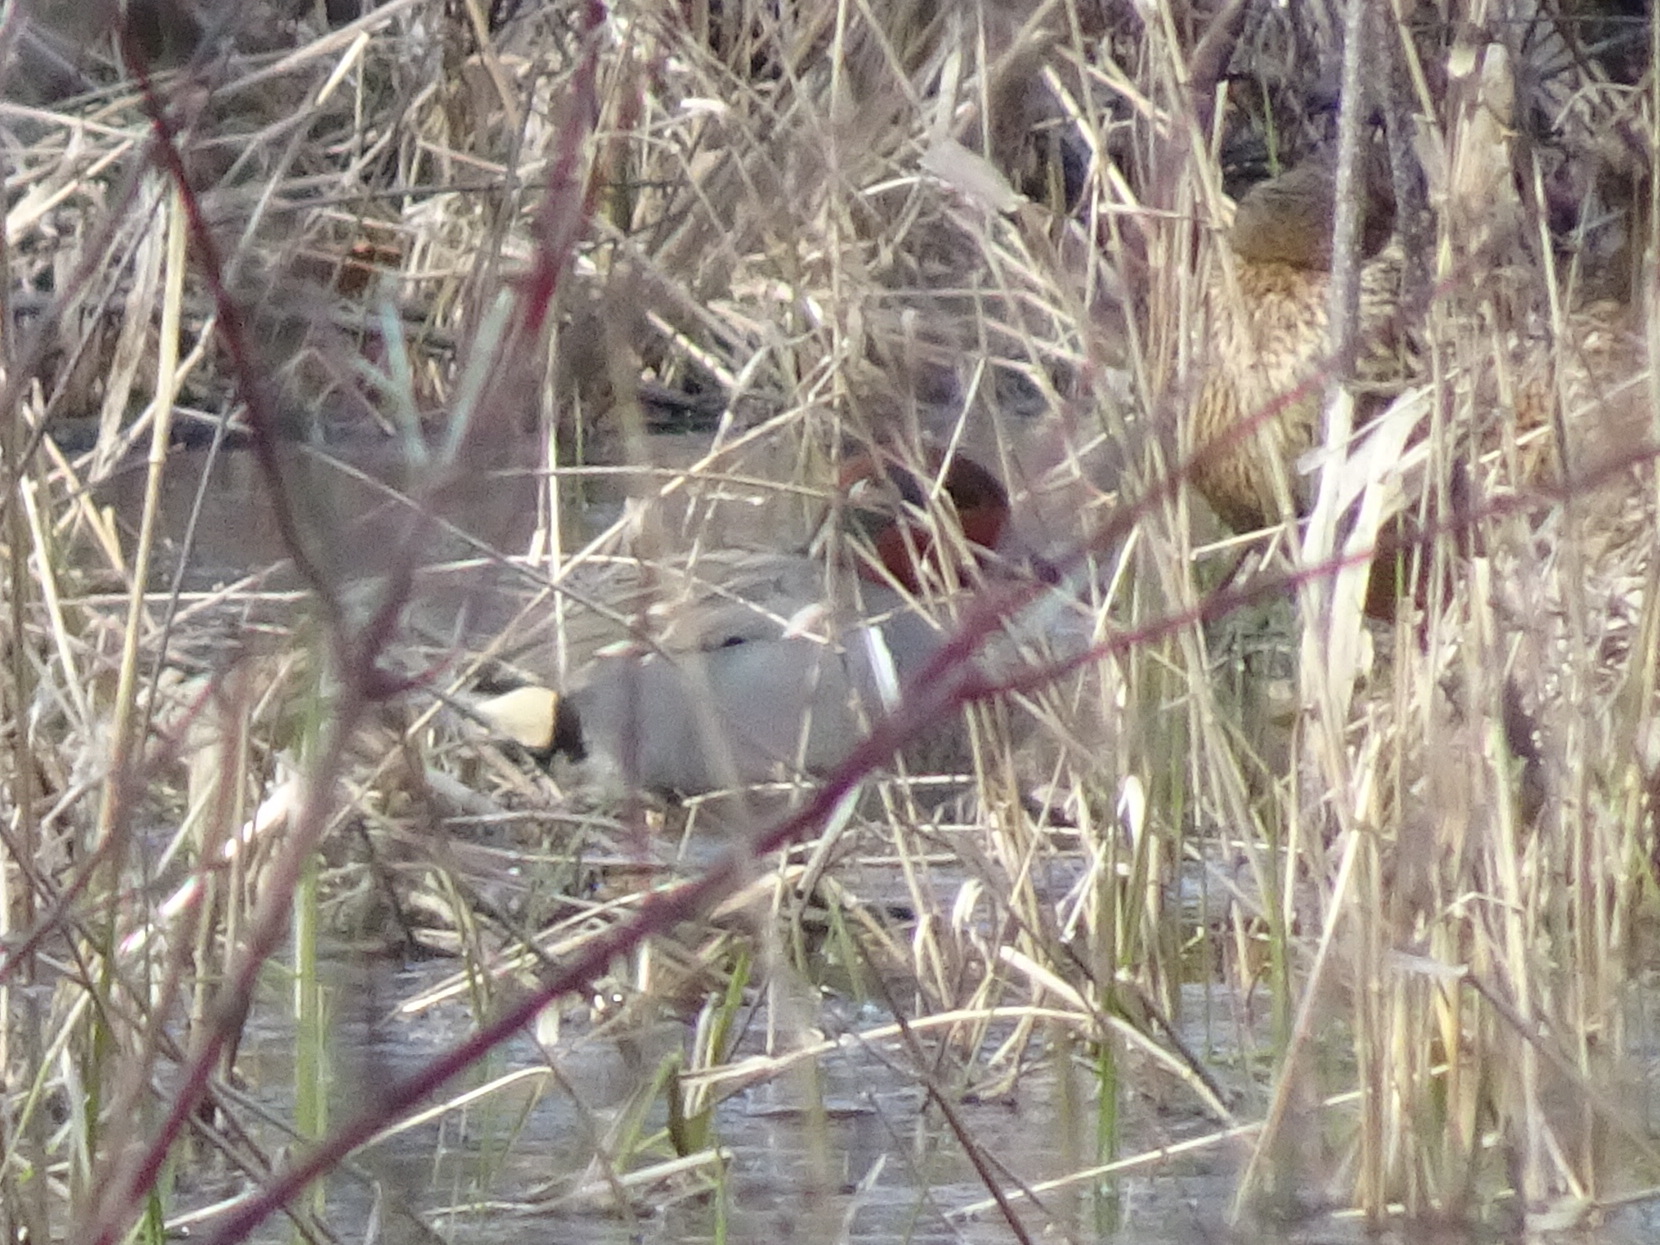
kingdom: Animalia
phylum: Chordata
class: Aves
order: Anseriformes
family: Anatidae
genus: Anas
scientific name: Anas crecca
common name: Eurasian teal
